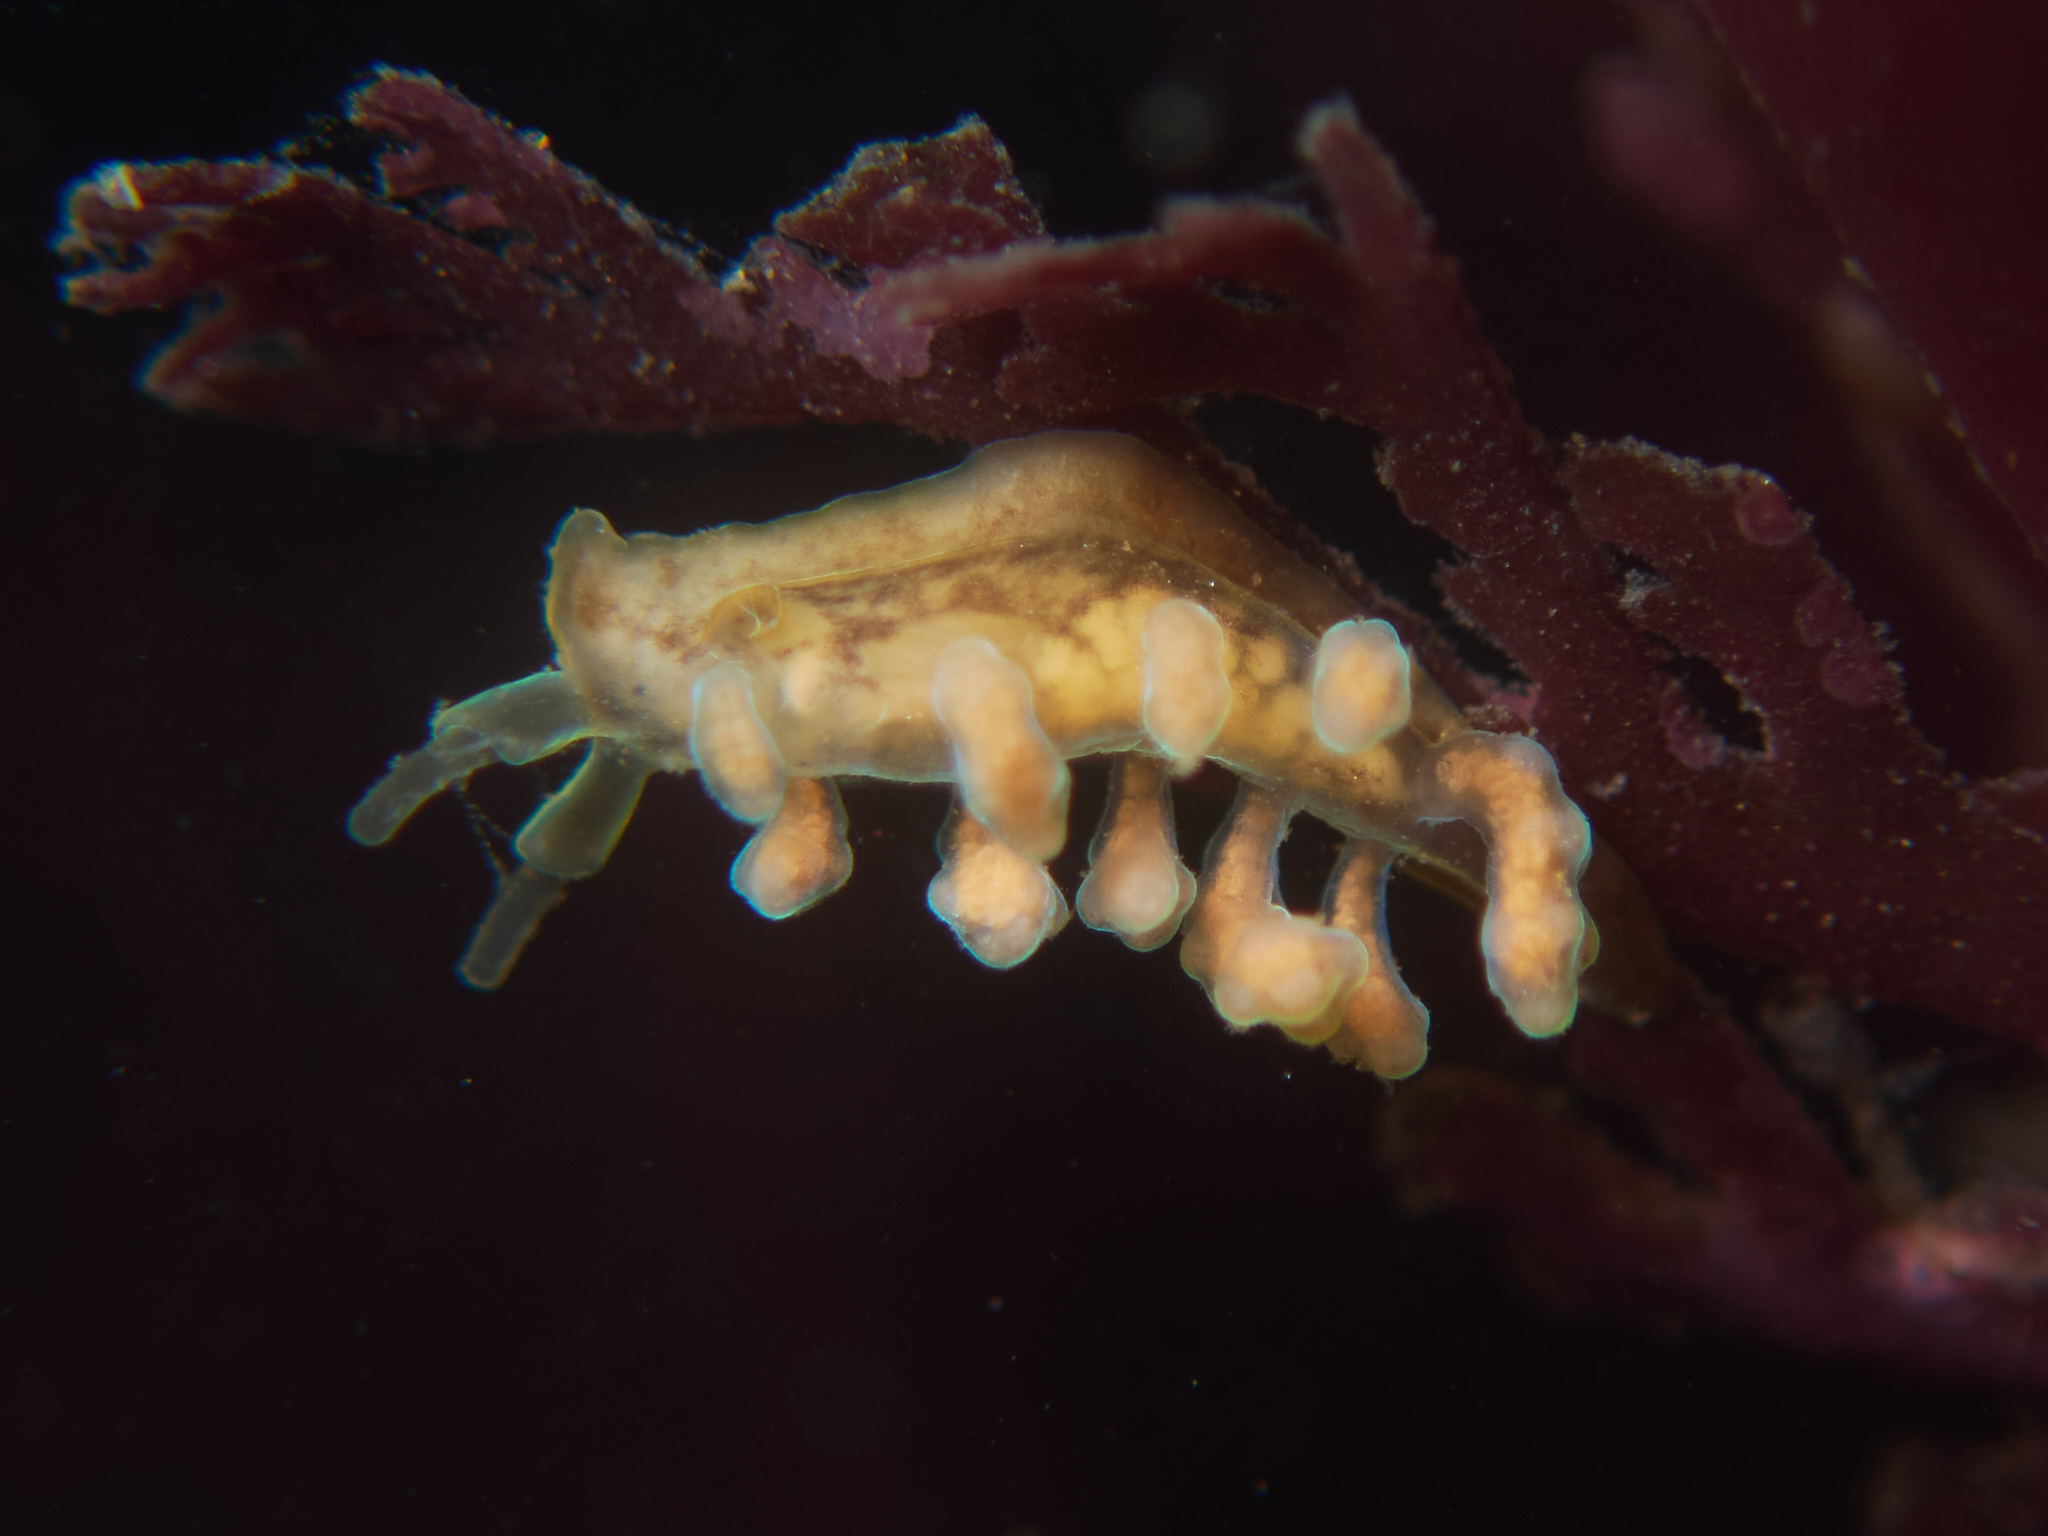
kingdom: Animalia
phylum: Mollusca
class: Gastropoda
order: Nudibranchia
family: Dotidae
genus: Doto
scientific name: Doto columbiana
